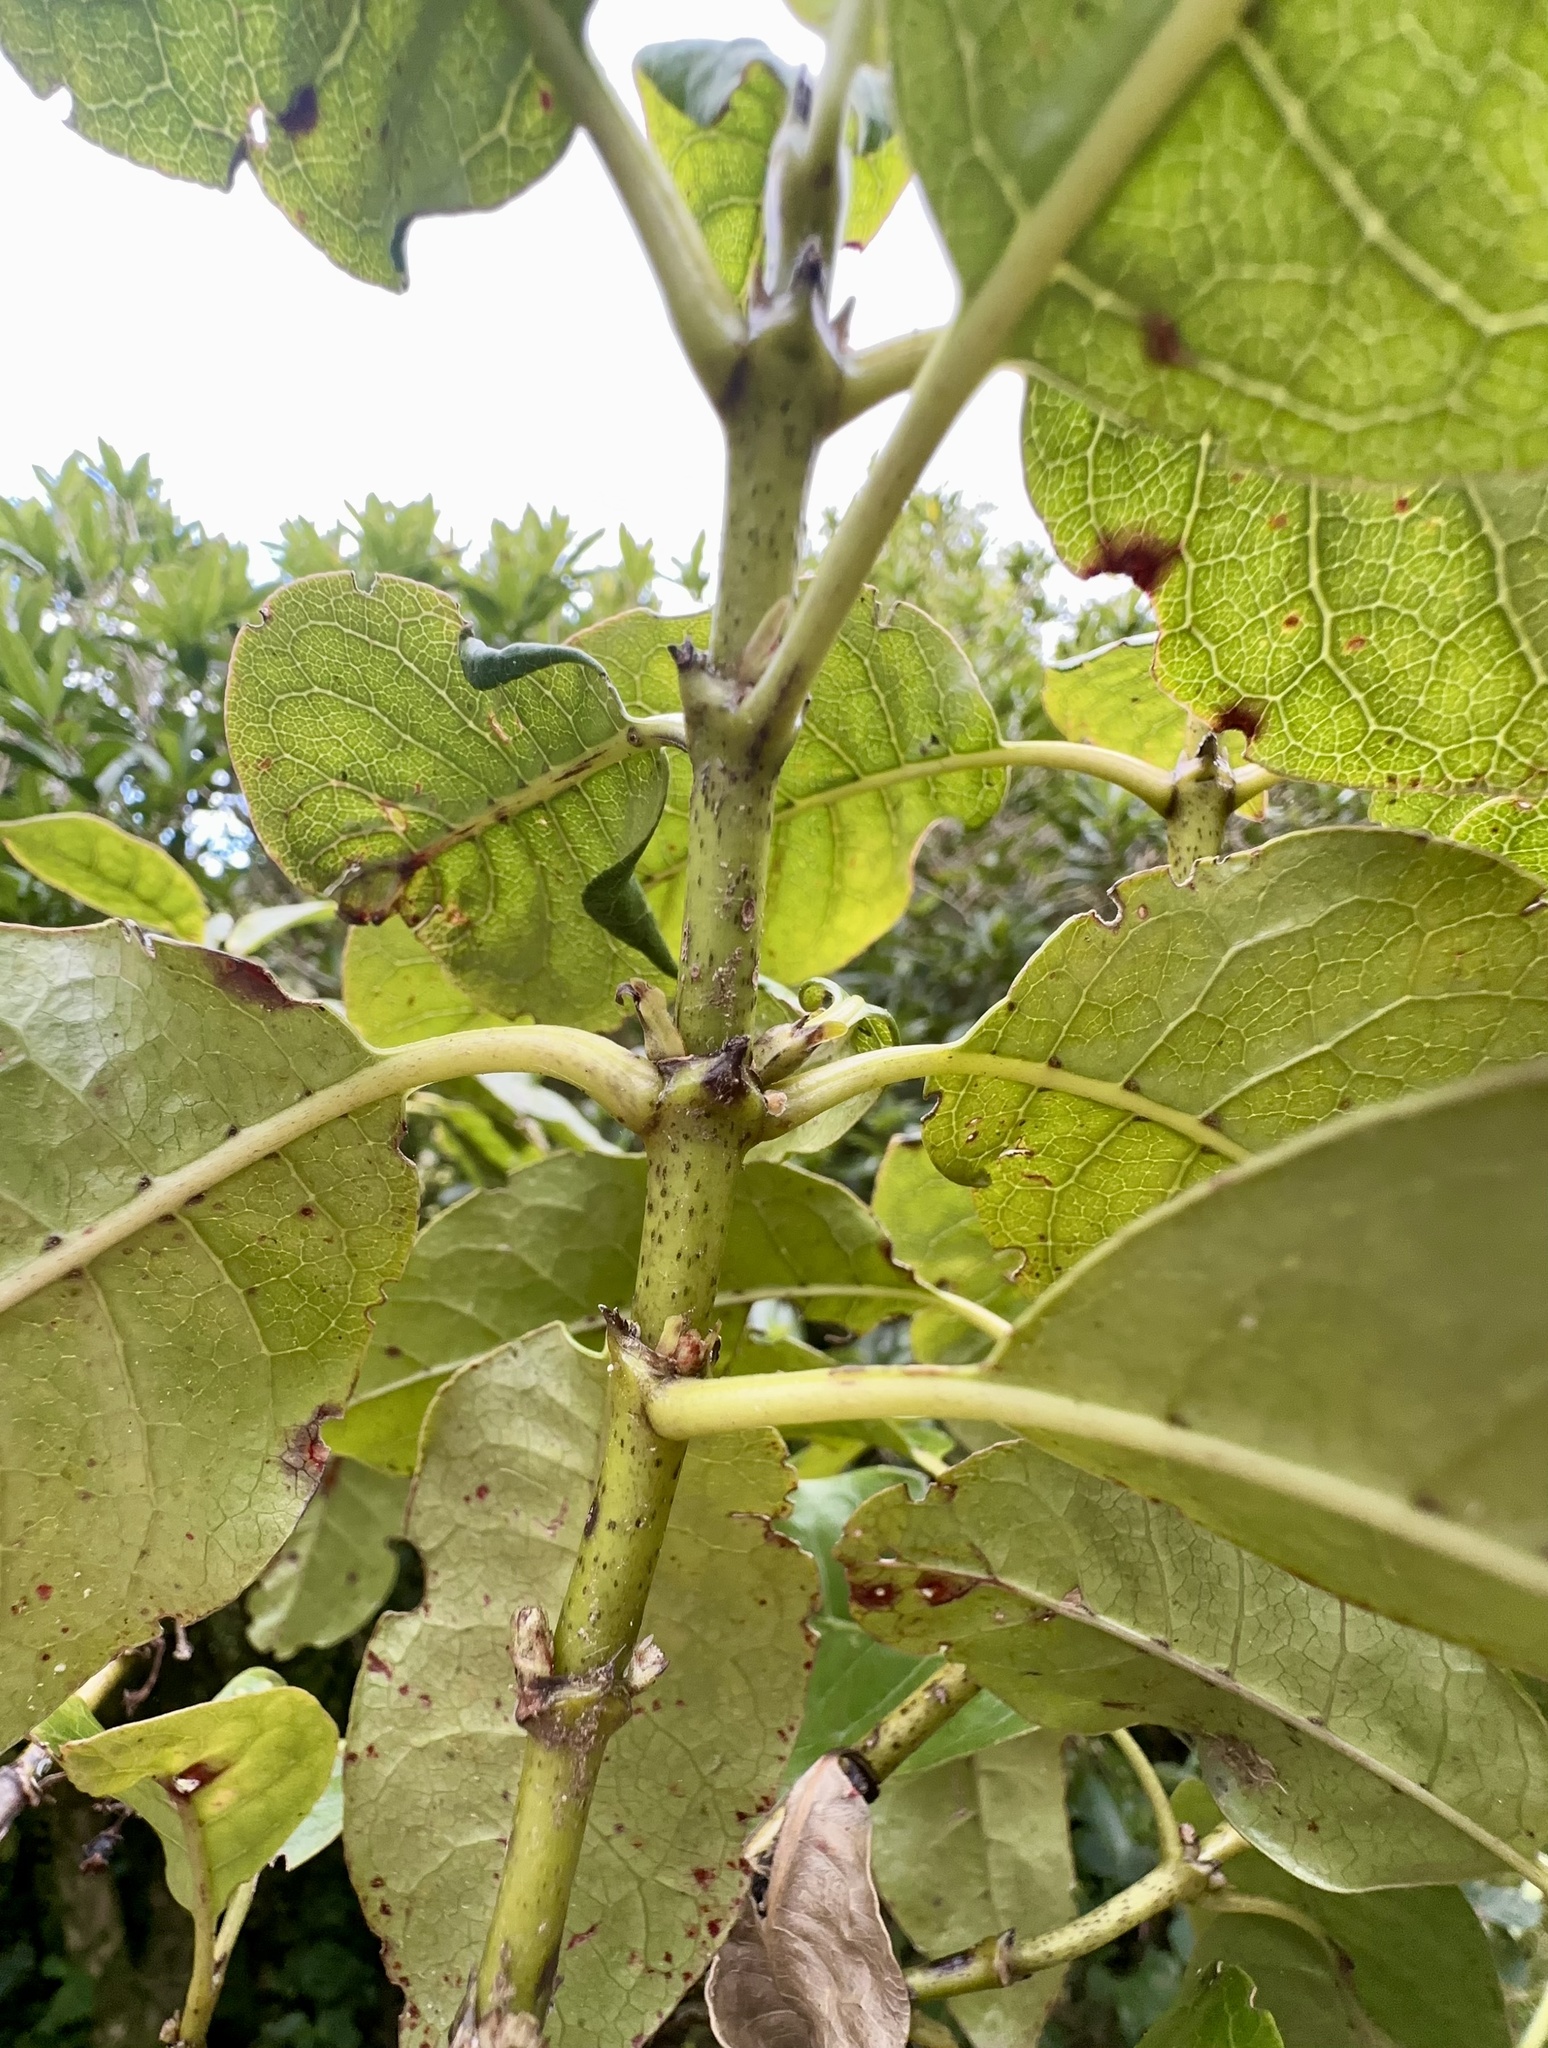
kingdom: Plantae
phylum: Tracheophyta
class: Magnoliopsida
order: Gentianales
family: Rubiaceae
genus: Coprosma
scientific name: Coprosma autumnalis
